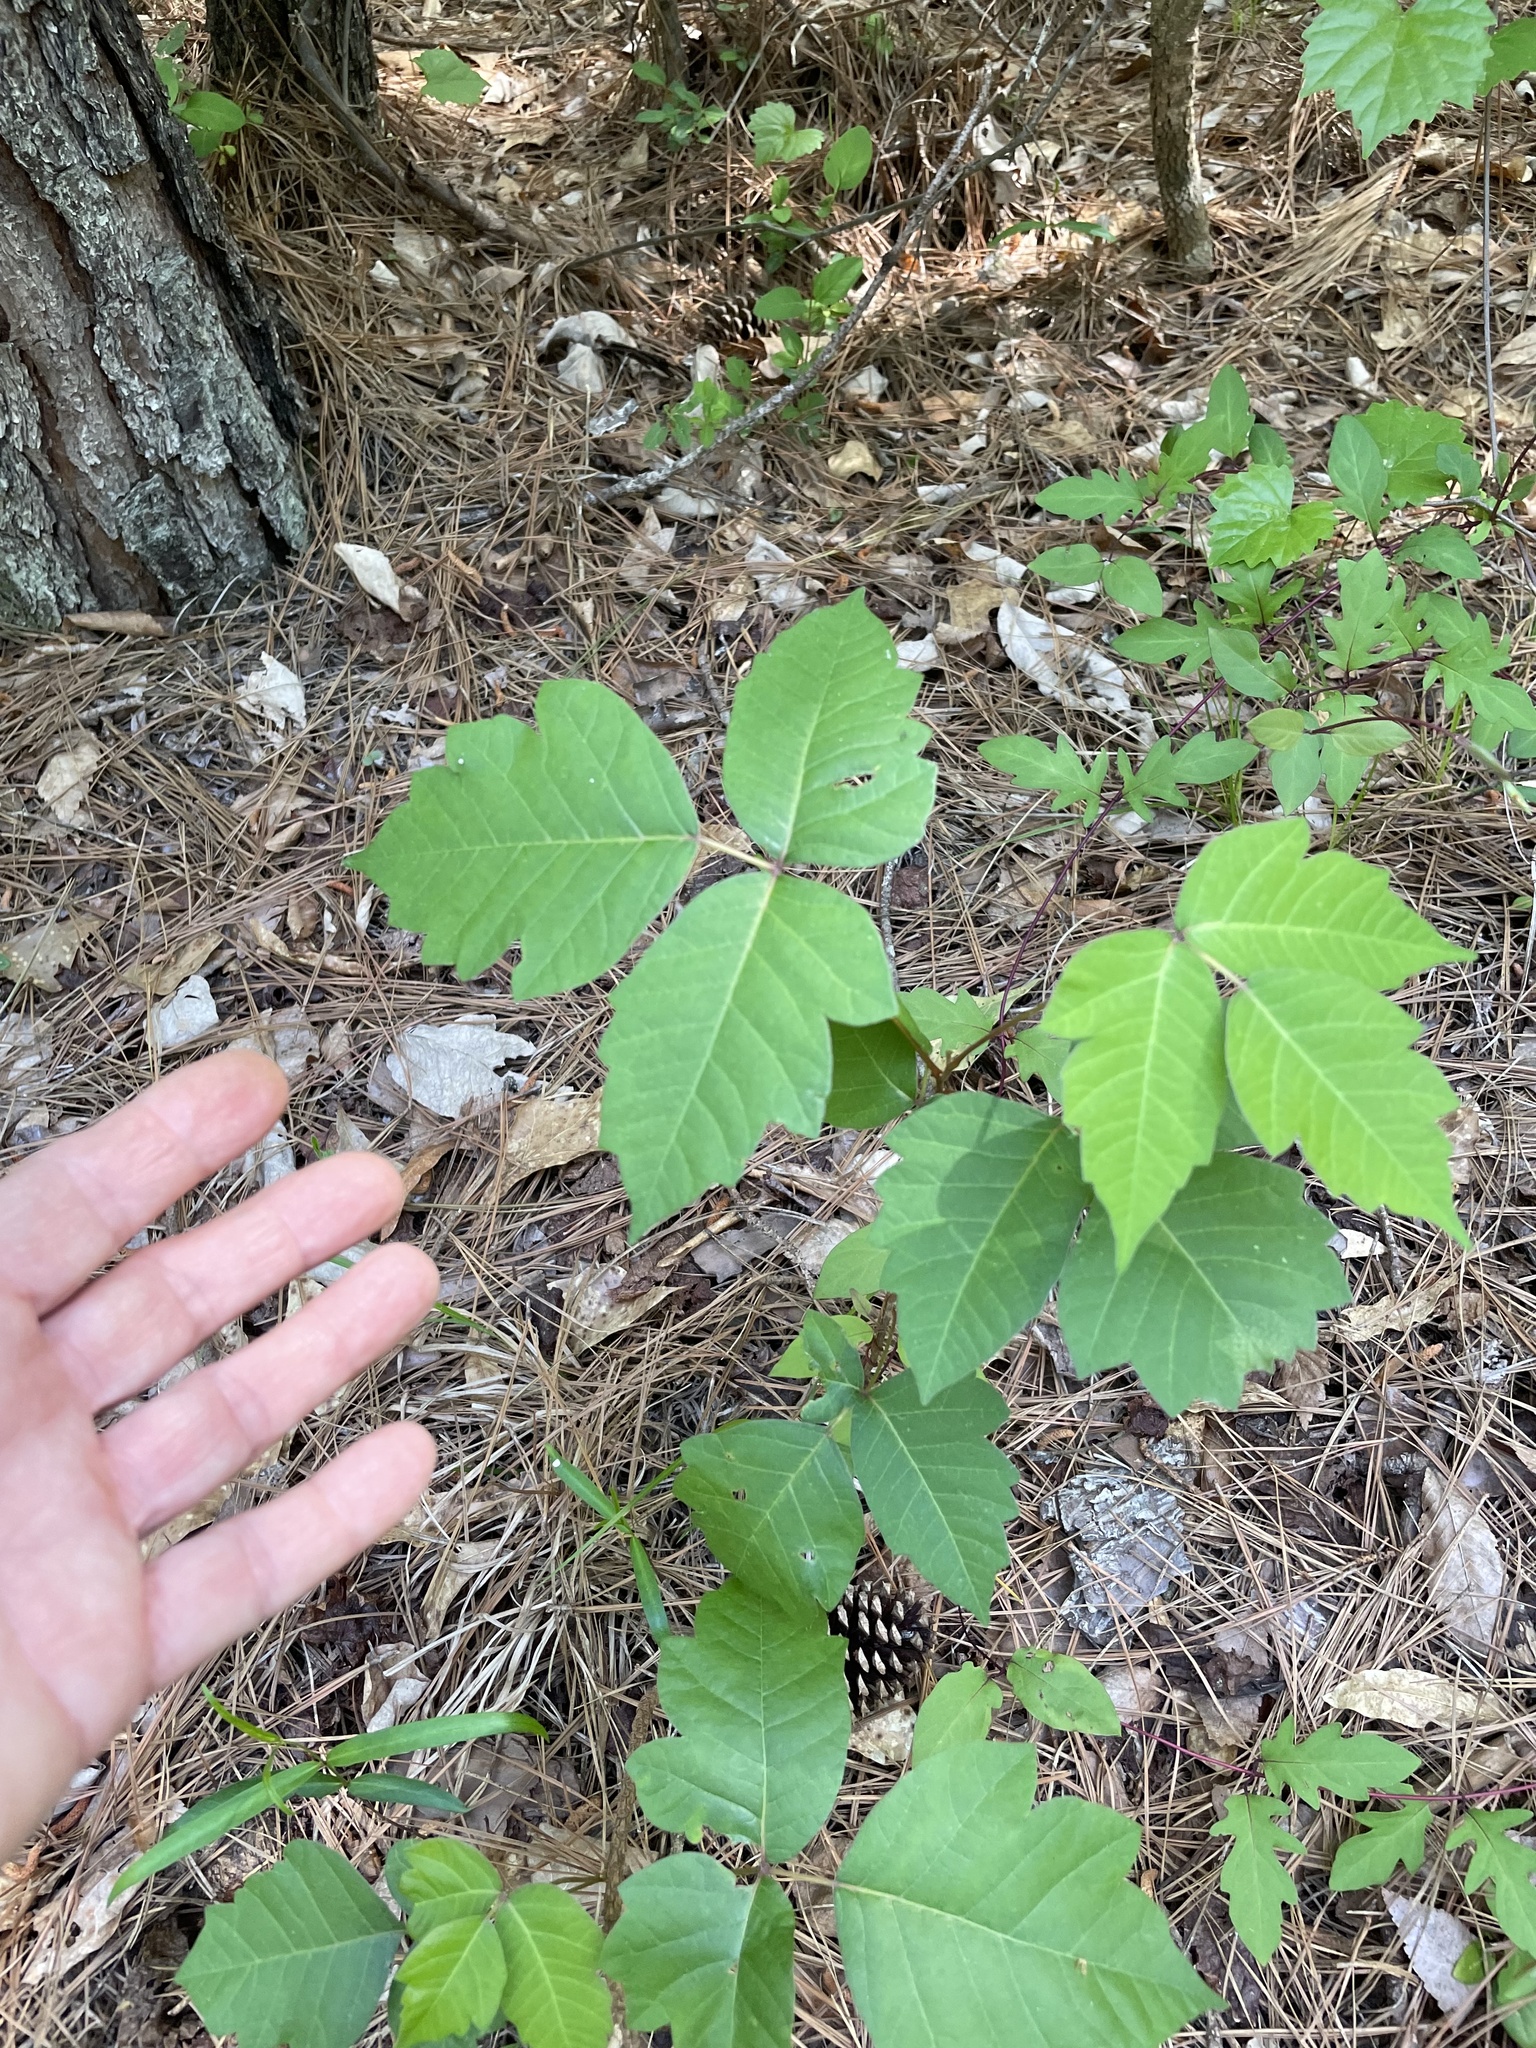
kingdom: Plantae
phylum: Tracheophyta
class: Magnoliopsida
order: Sapindales
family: Anacardiaceae
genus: Toxicodendron
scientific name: Toxicodendron radicans
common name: Poison ivy
